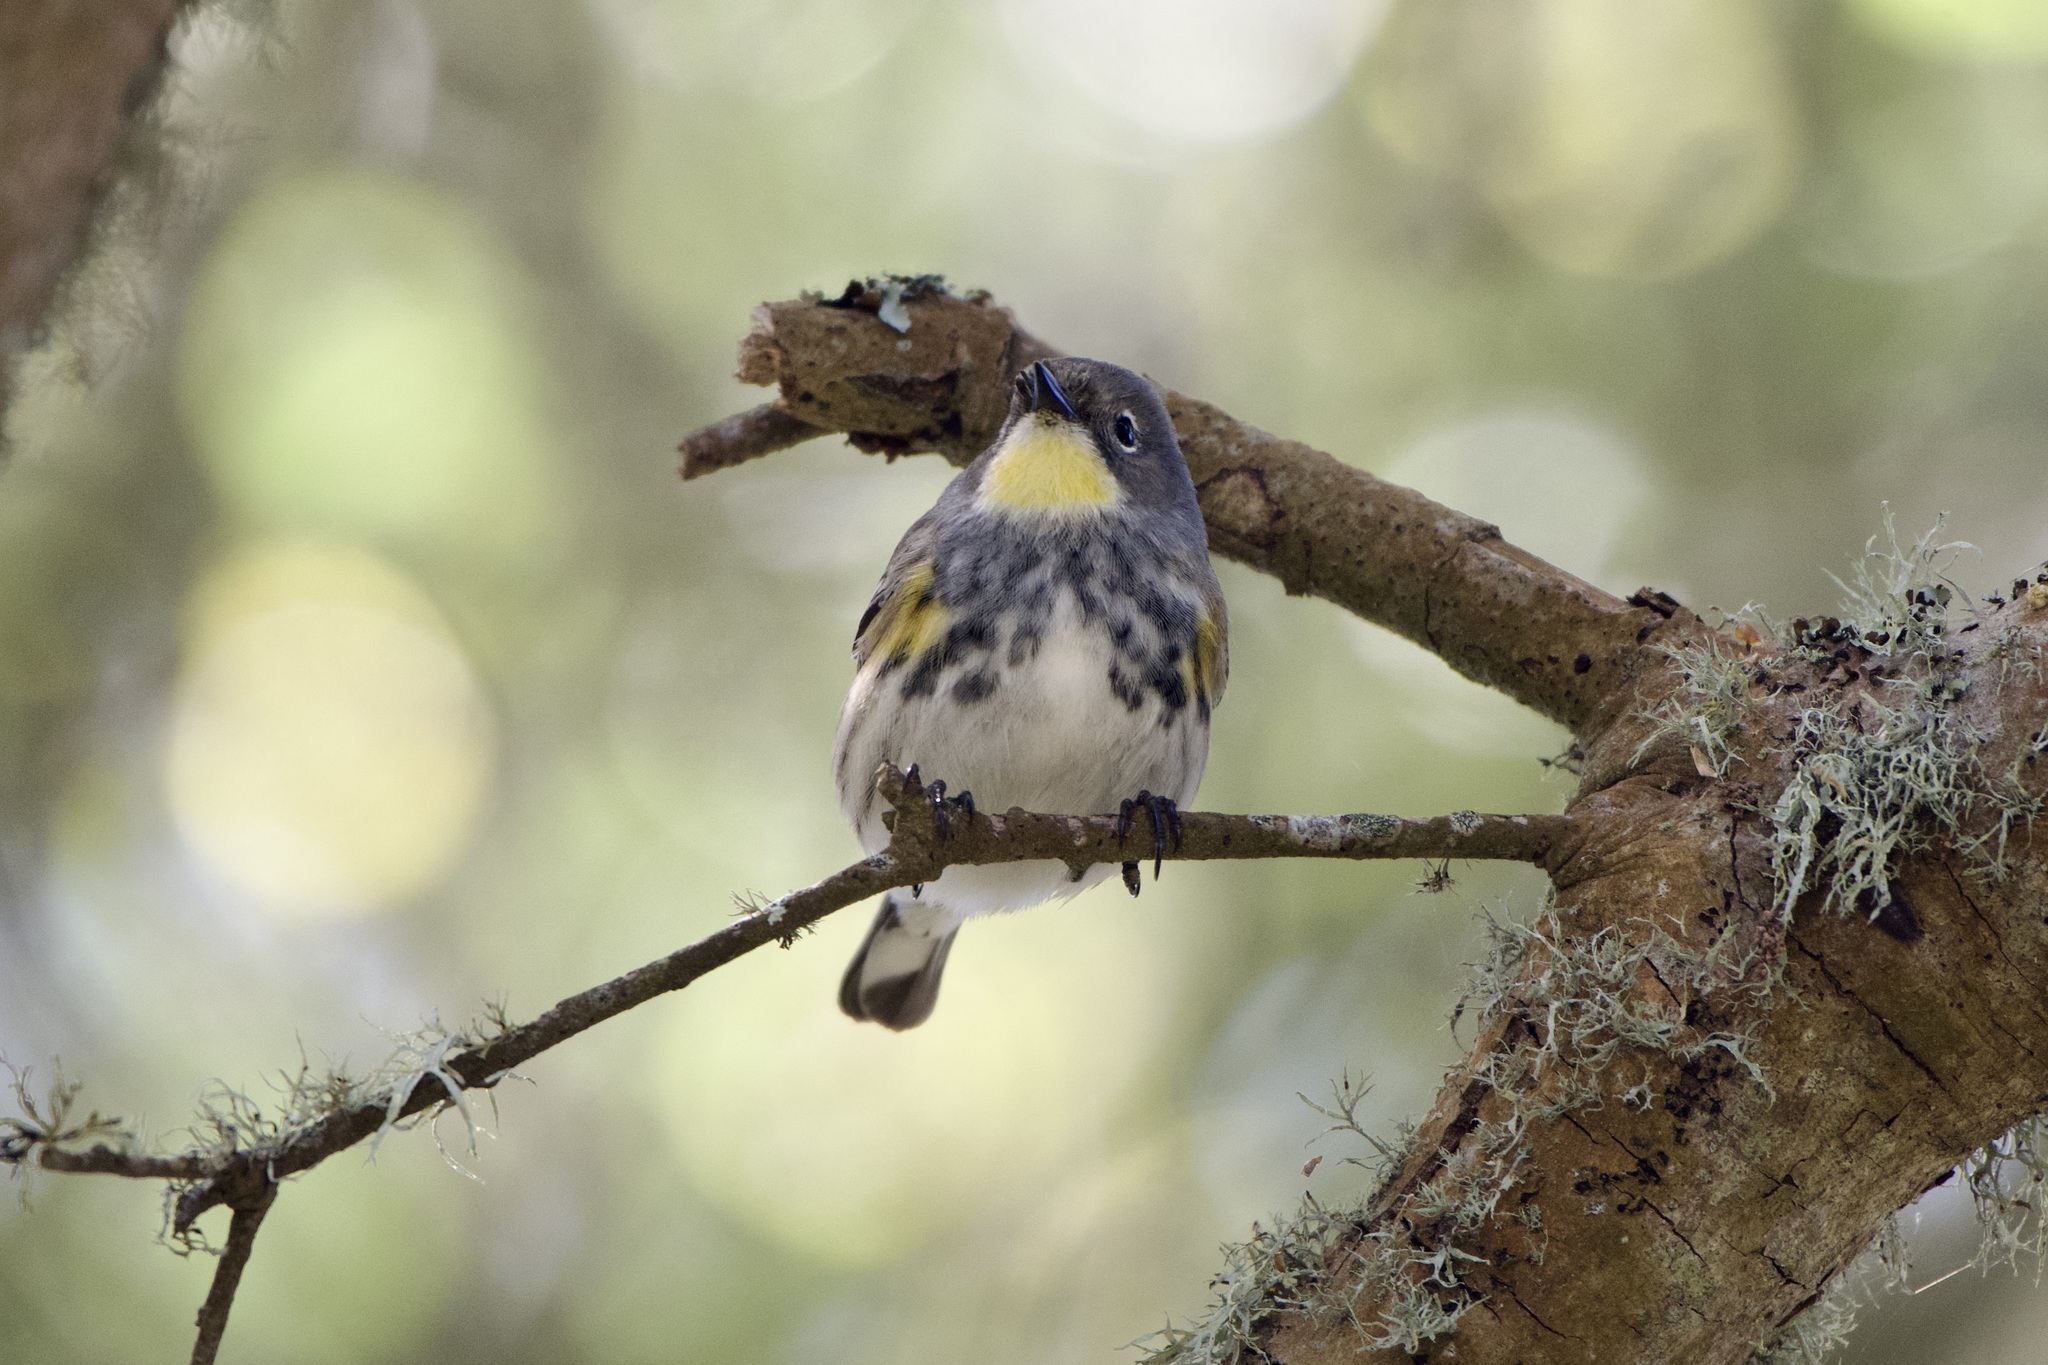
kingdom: Animalia
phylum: Chordata
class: Aves
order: Passeriformes
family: Parulidae
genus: Setophaga
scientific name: Setophaga coronata
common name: Myrtle warbler
